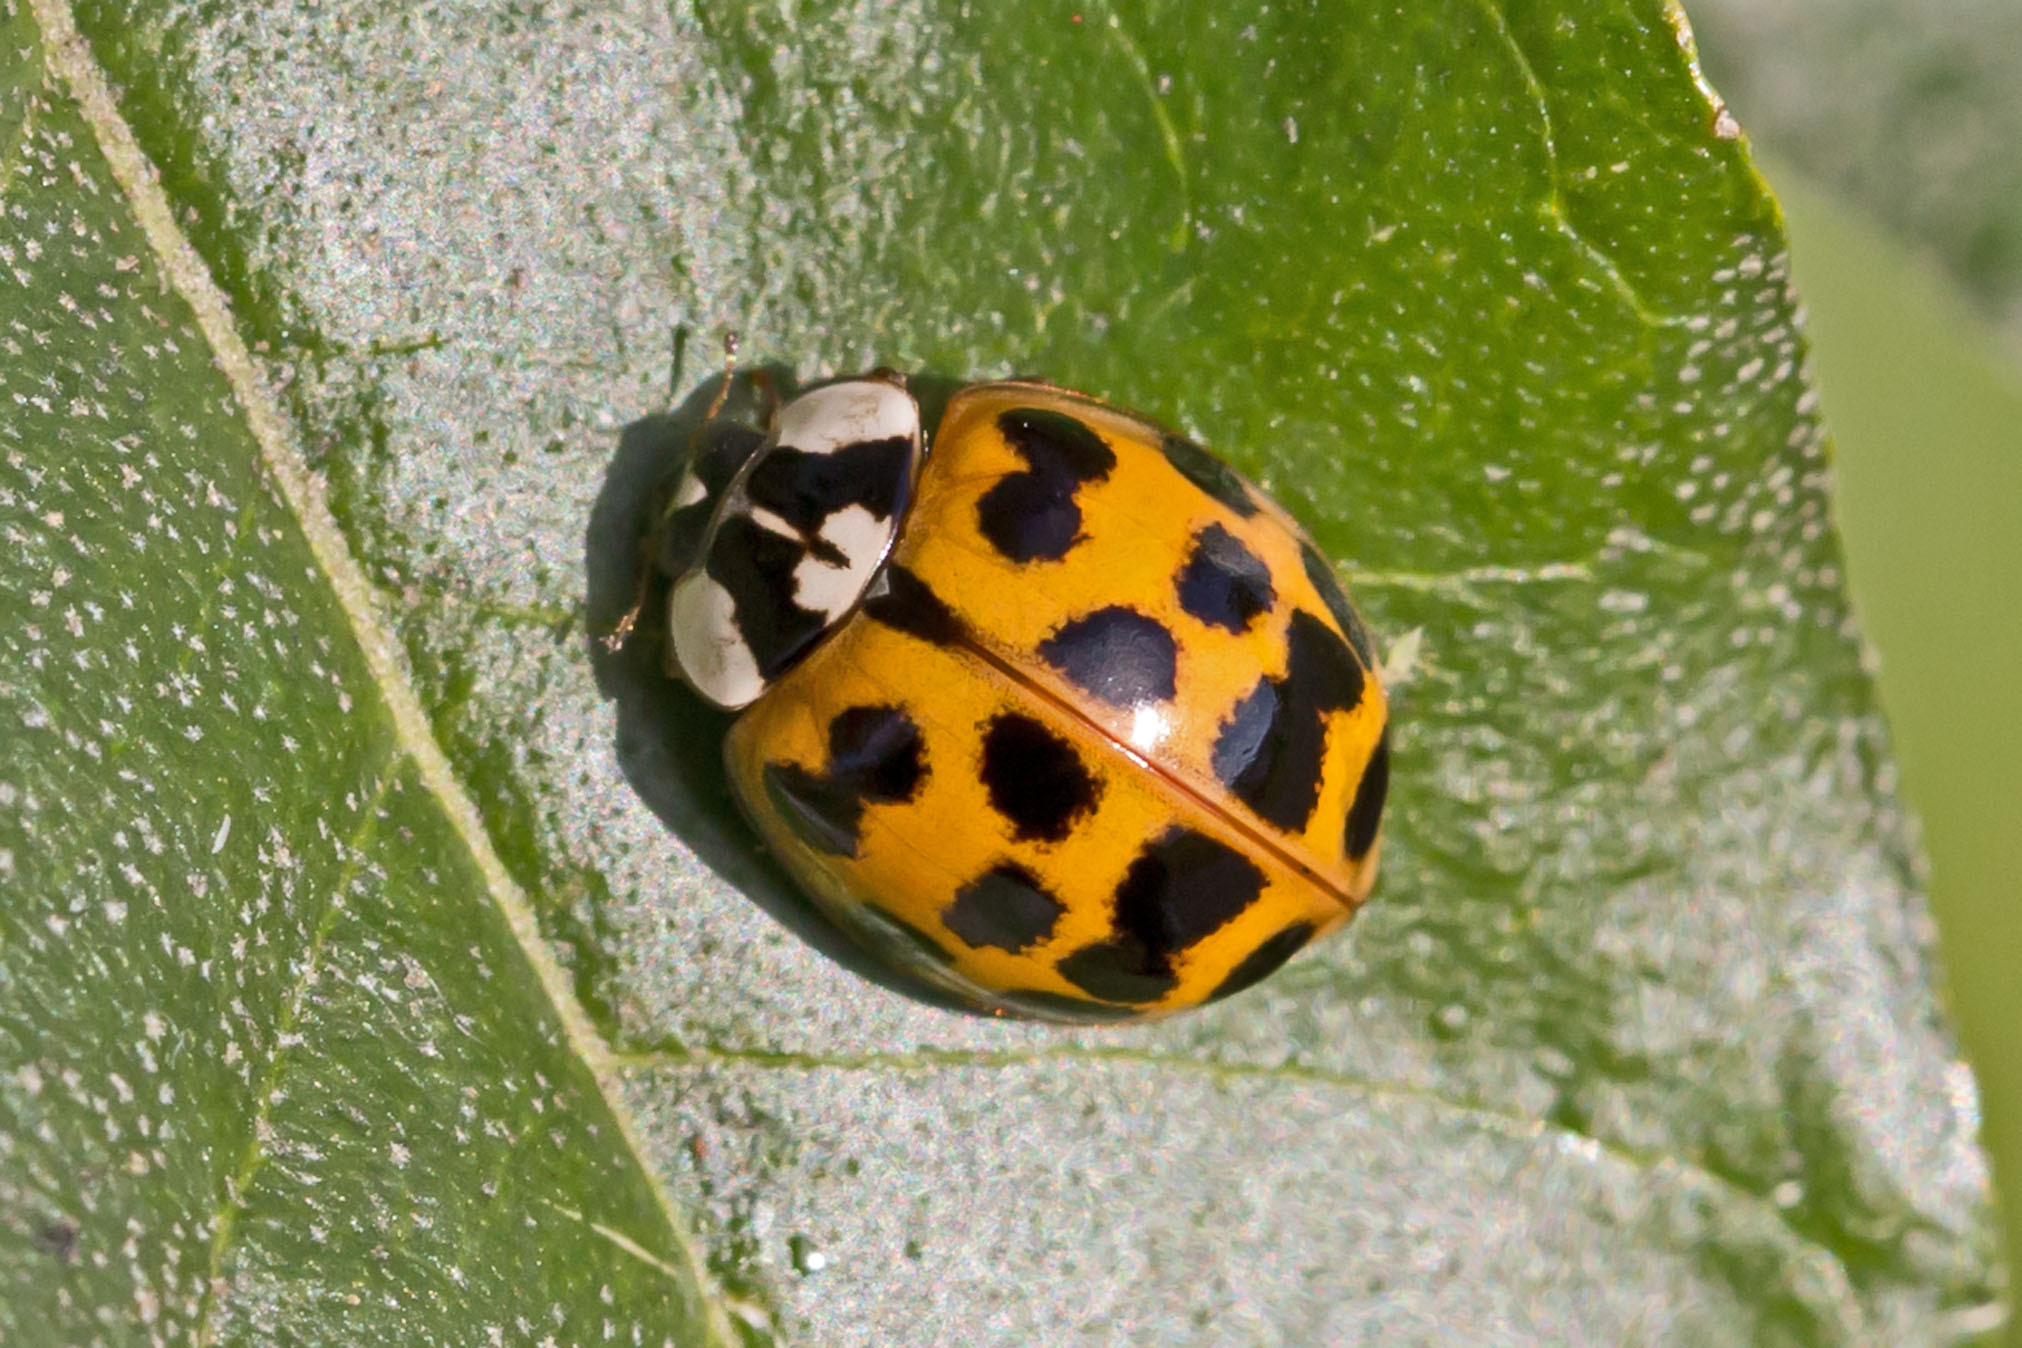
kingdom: Animalia
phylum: Arthropoda
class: Insecta
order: Coleoptera
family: Coccinellidae
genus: Harmonia
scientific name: Harmonia axyridis
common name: Harlequin ladybird
